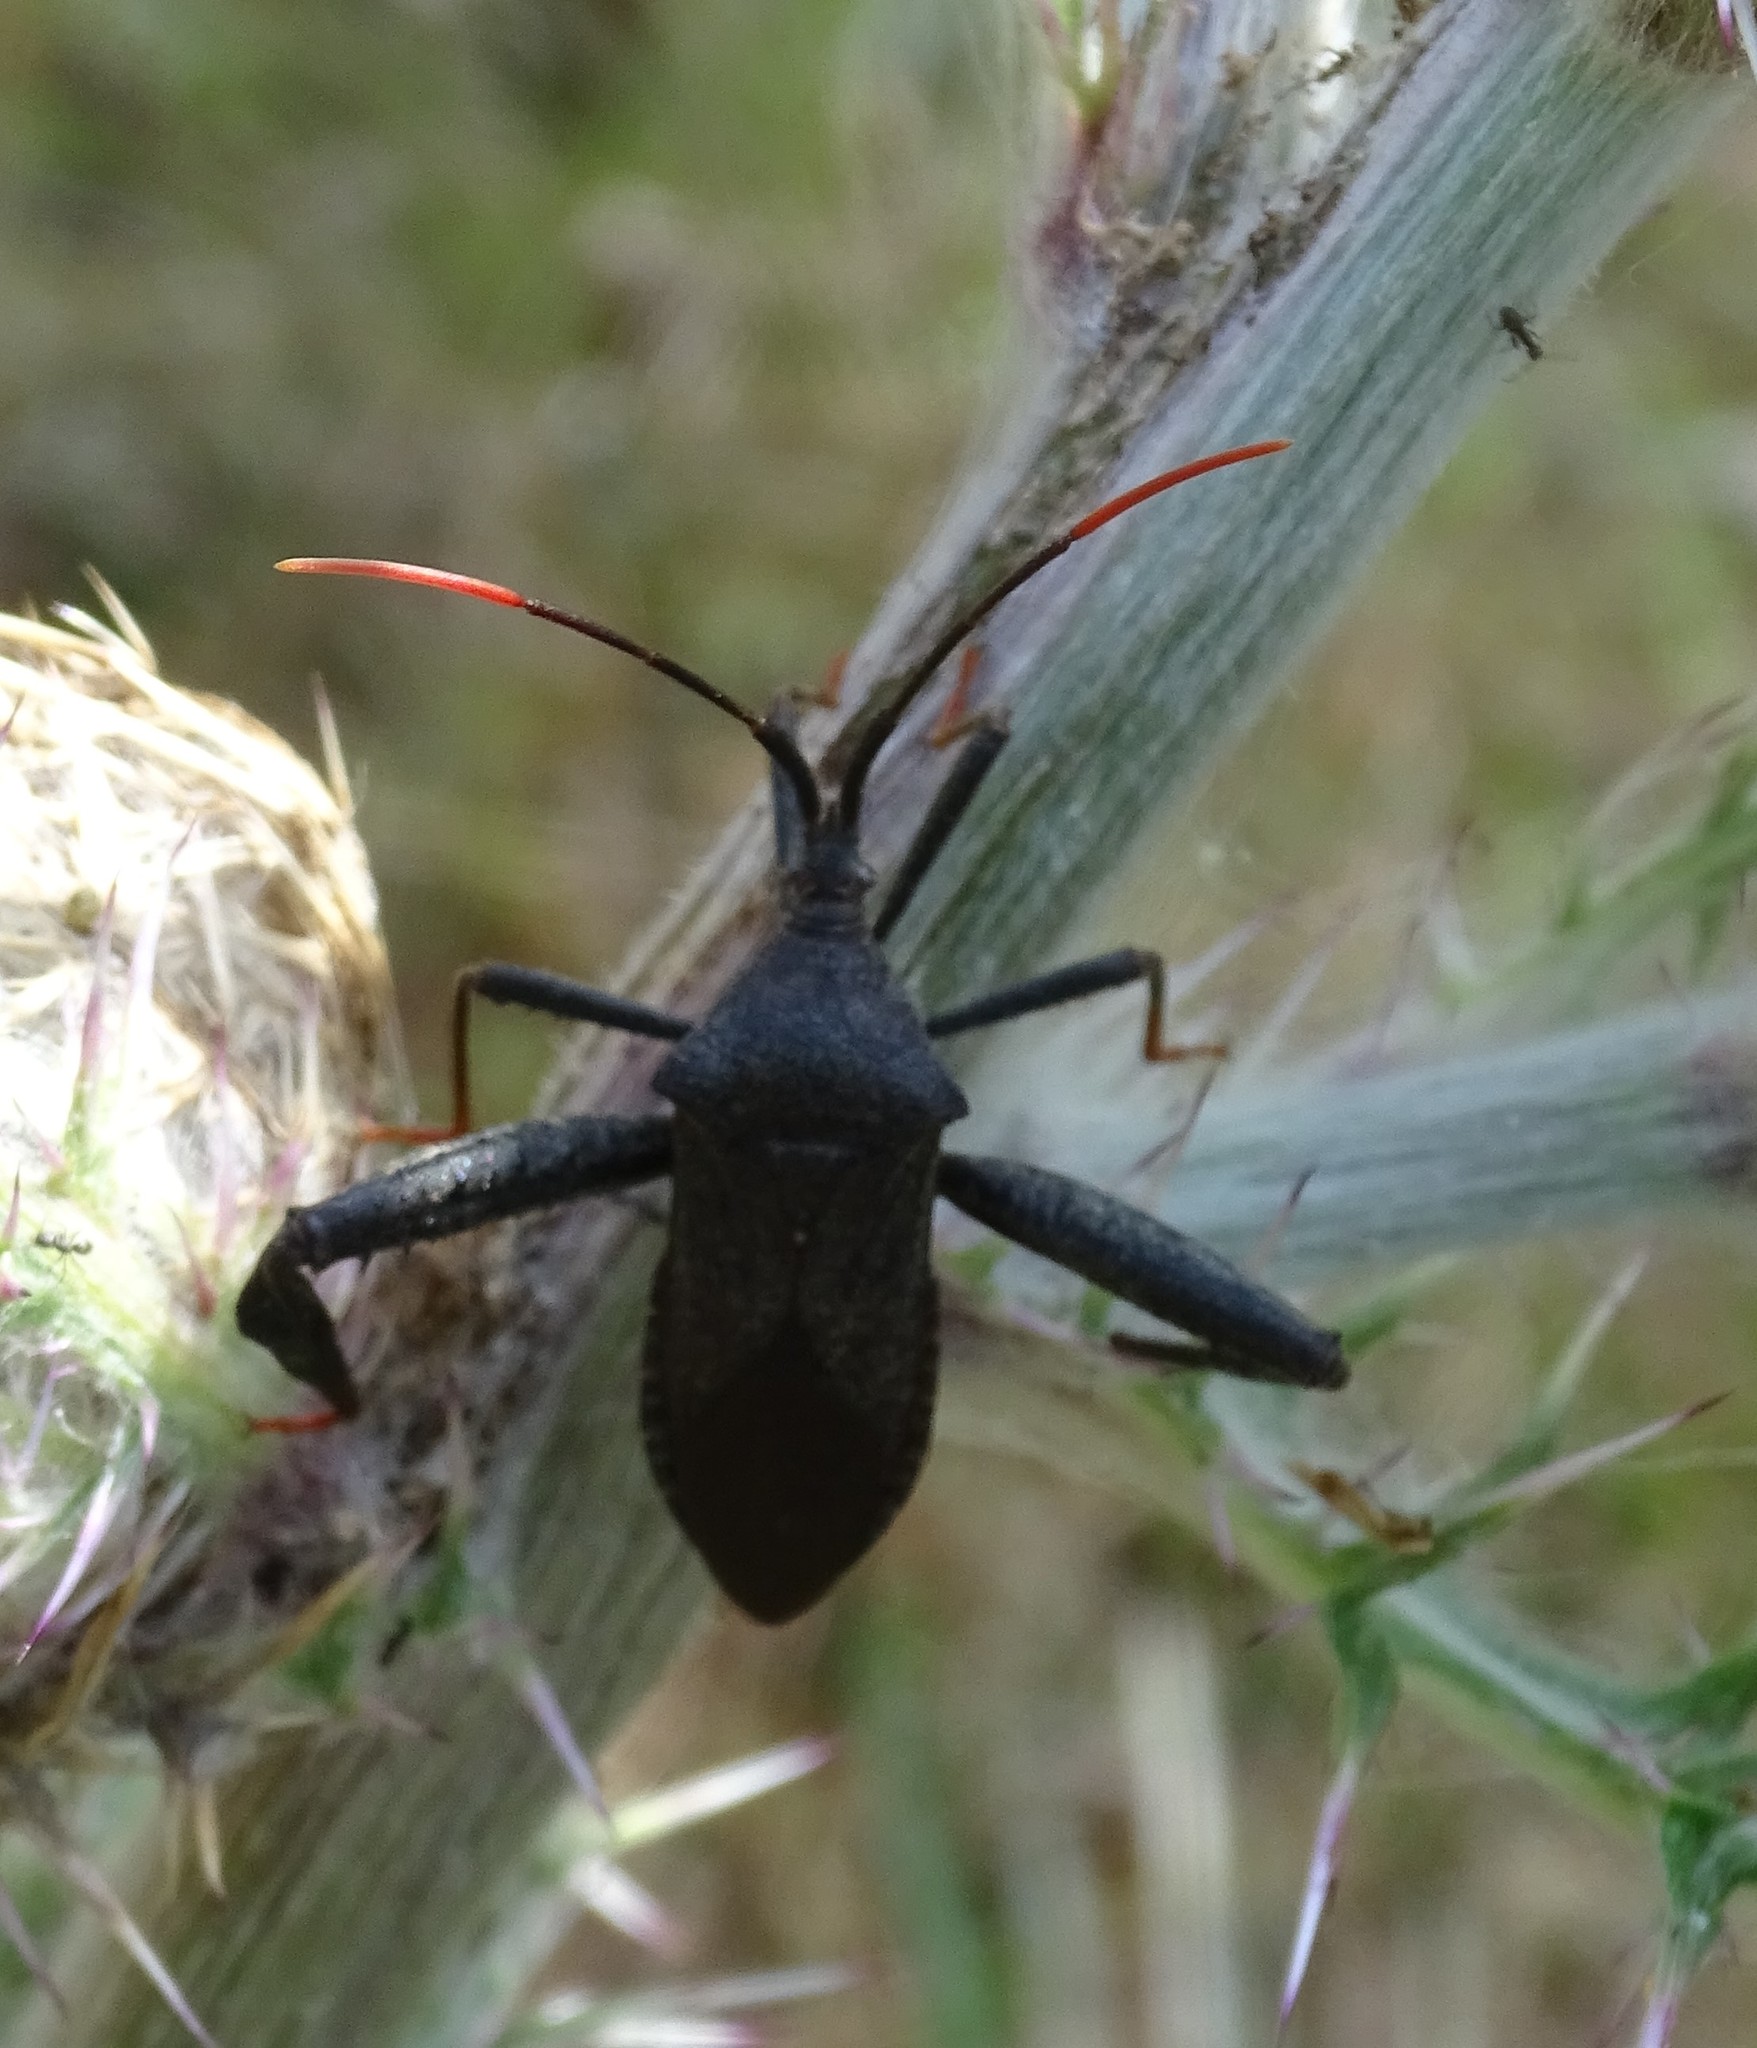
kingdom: Animalia
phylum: Arthropoda
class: Insecta
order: Hemiptera
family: Coreidae
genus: Acanthocephala
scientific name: Acanthocephala terminalis
